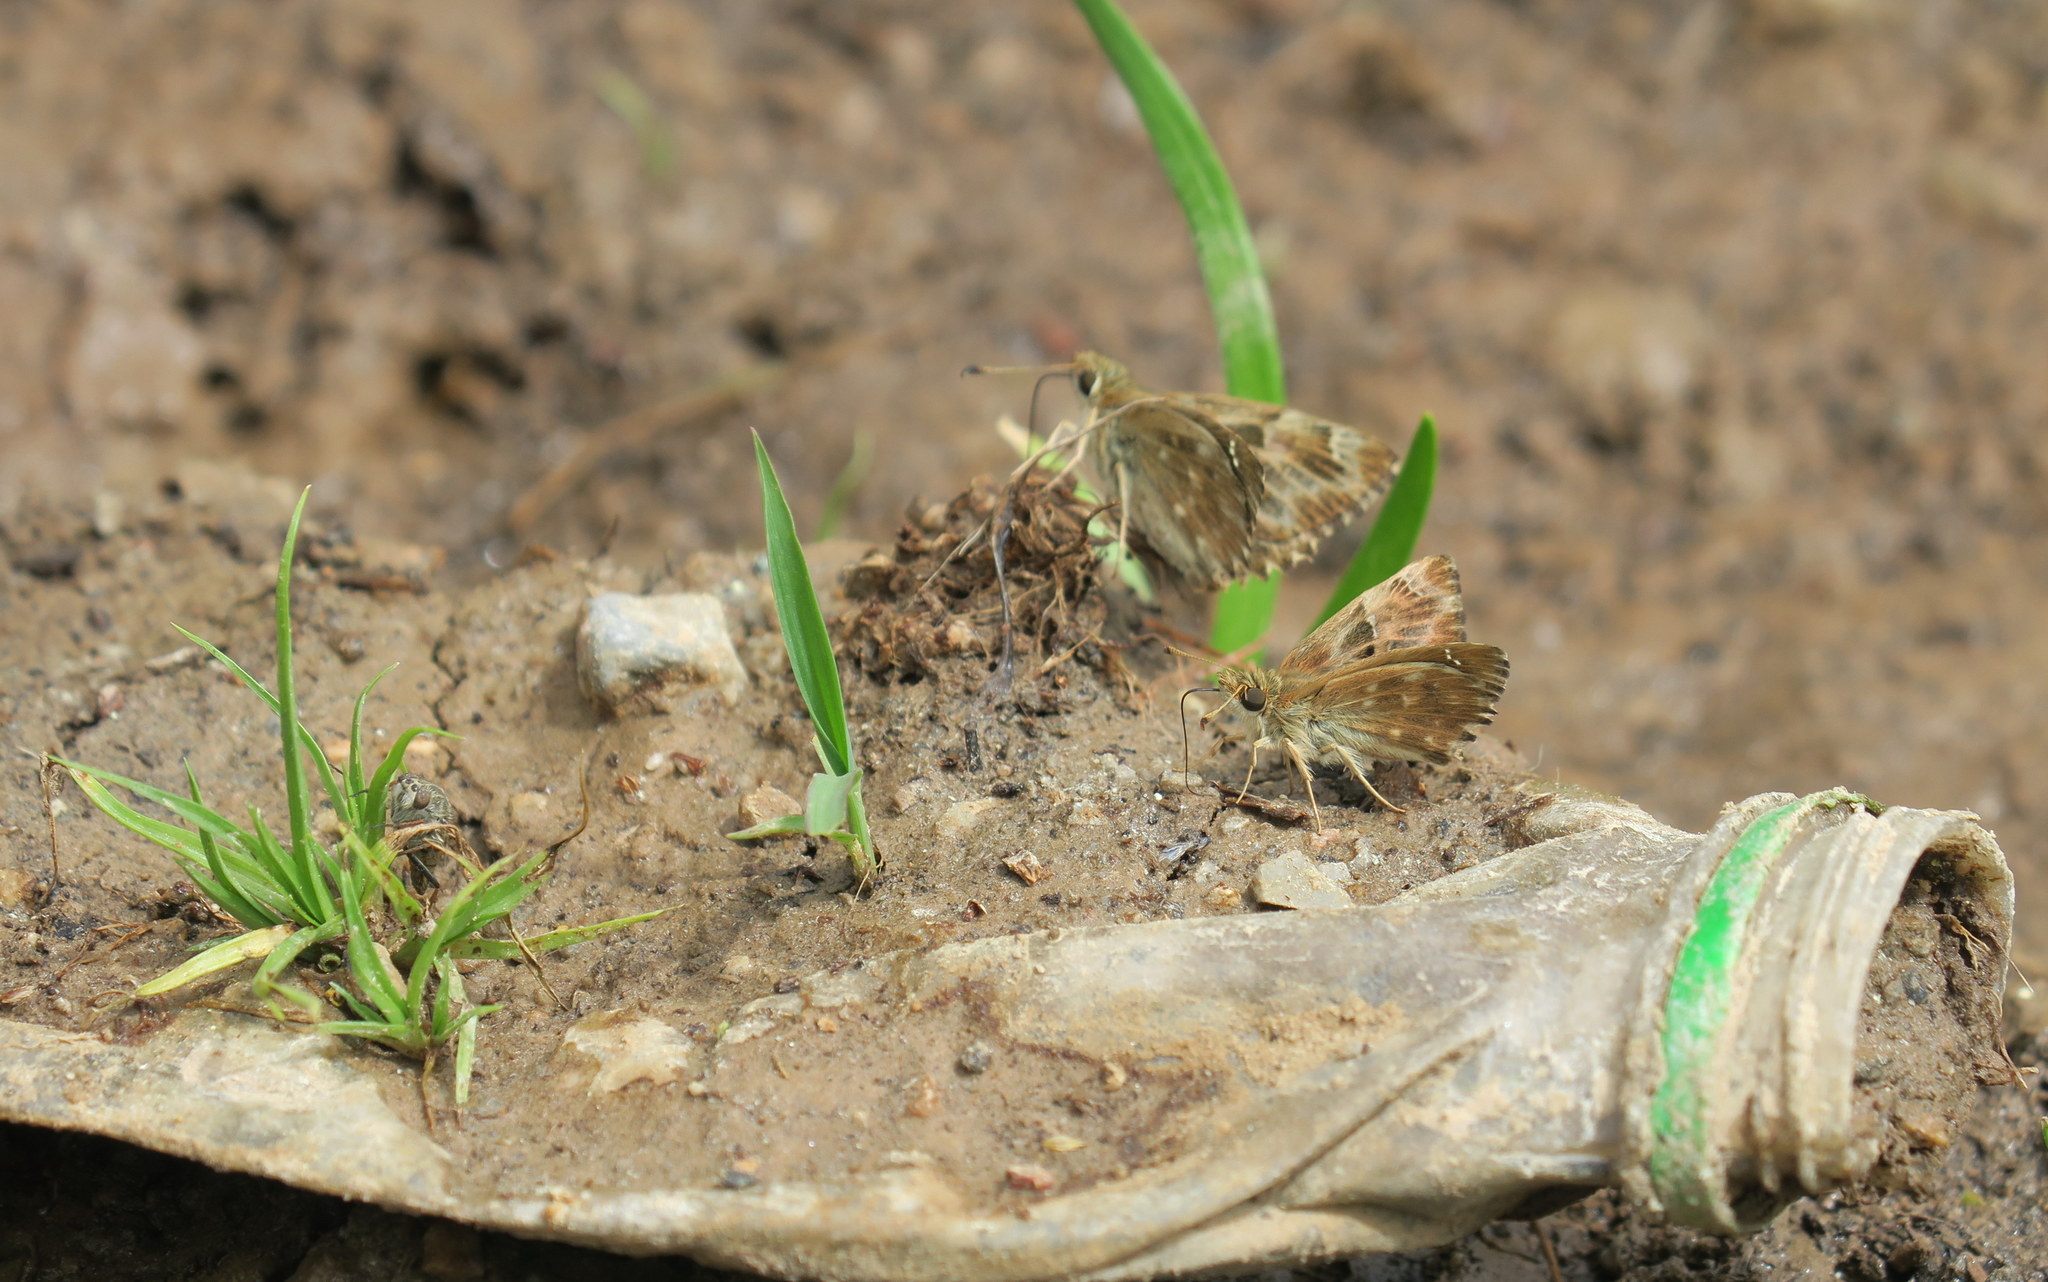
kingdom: Animalia
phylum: Arthropoda
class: Insecta
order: Lepidoptera
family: Hesperiidae
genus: Carcharodus
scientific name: Carcharodus alceae
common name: Mallow skipper
